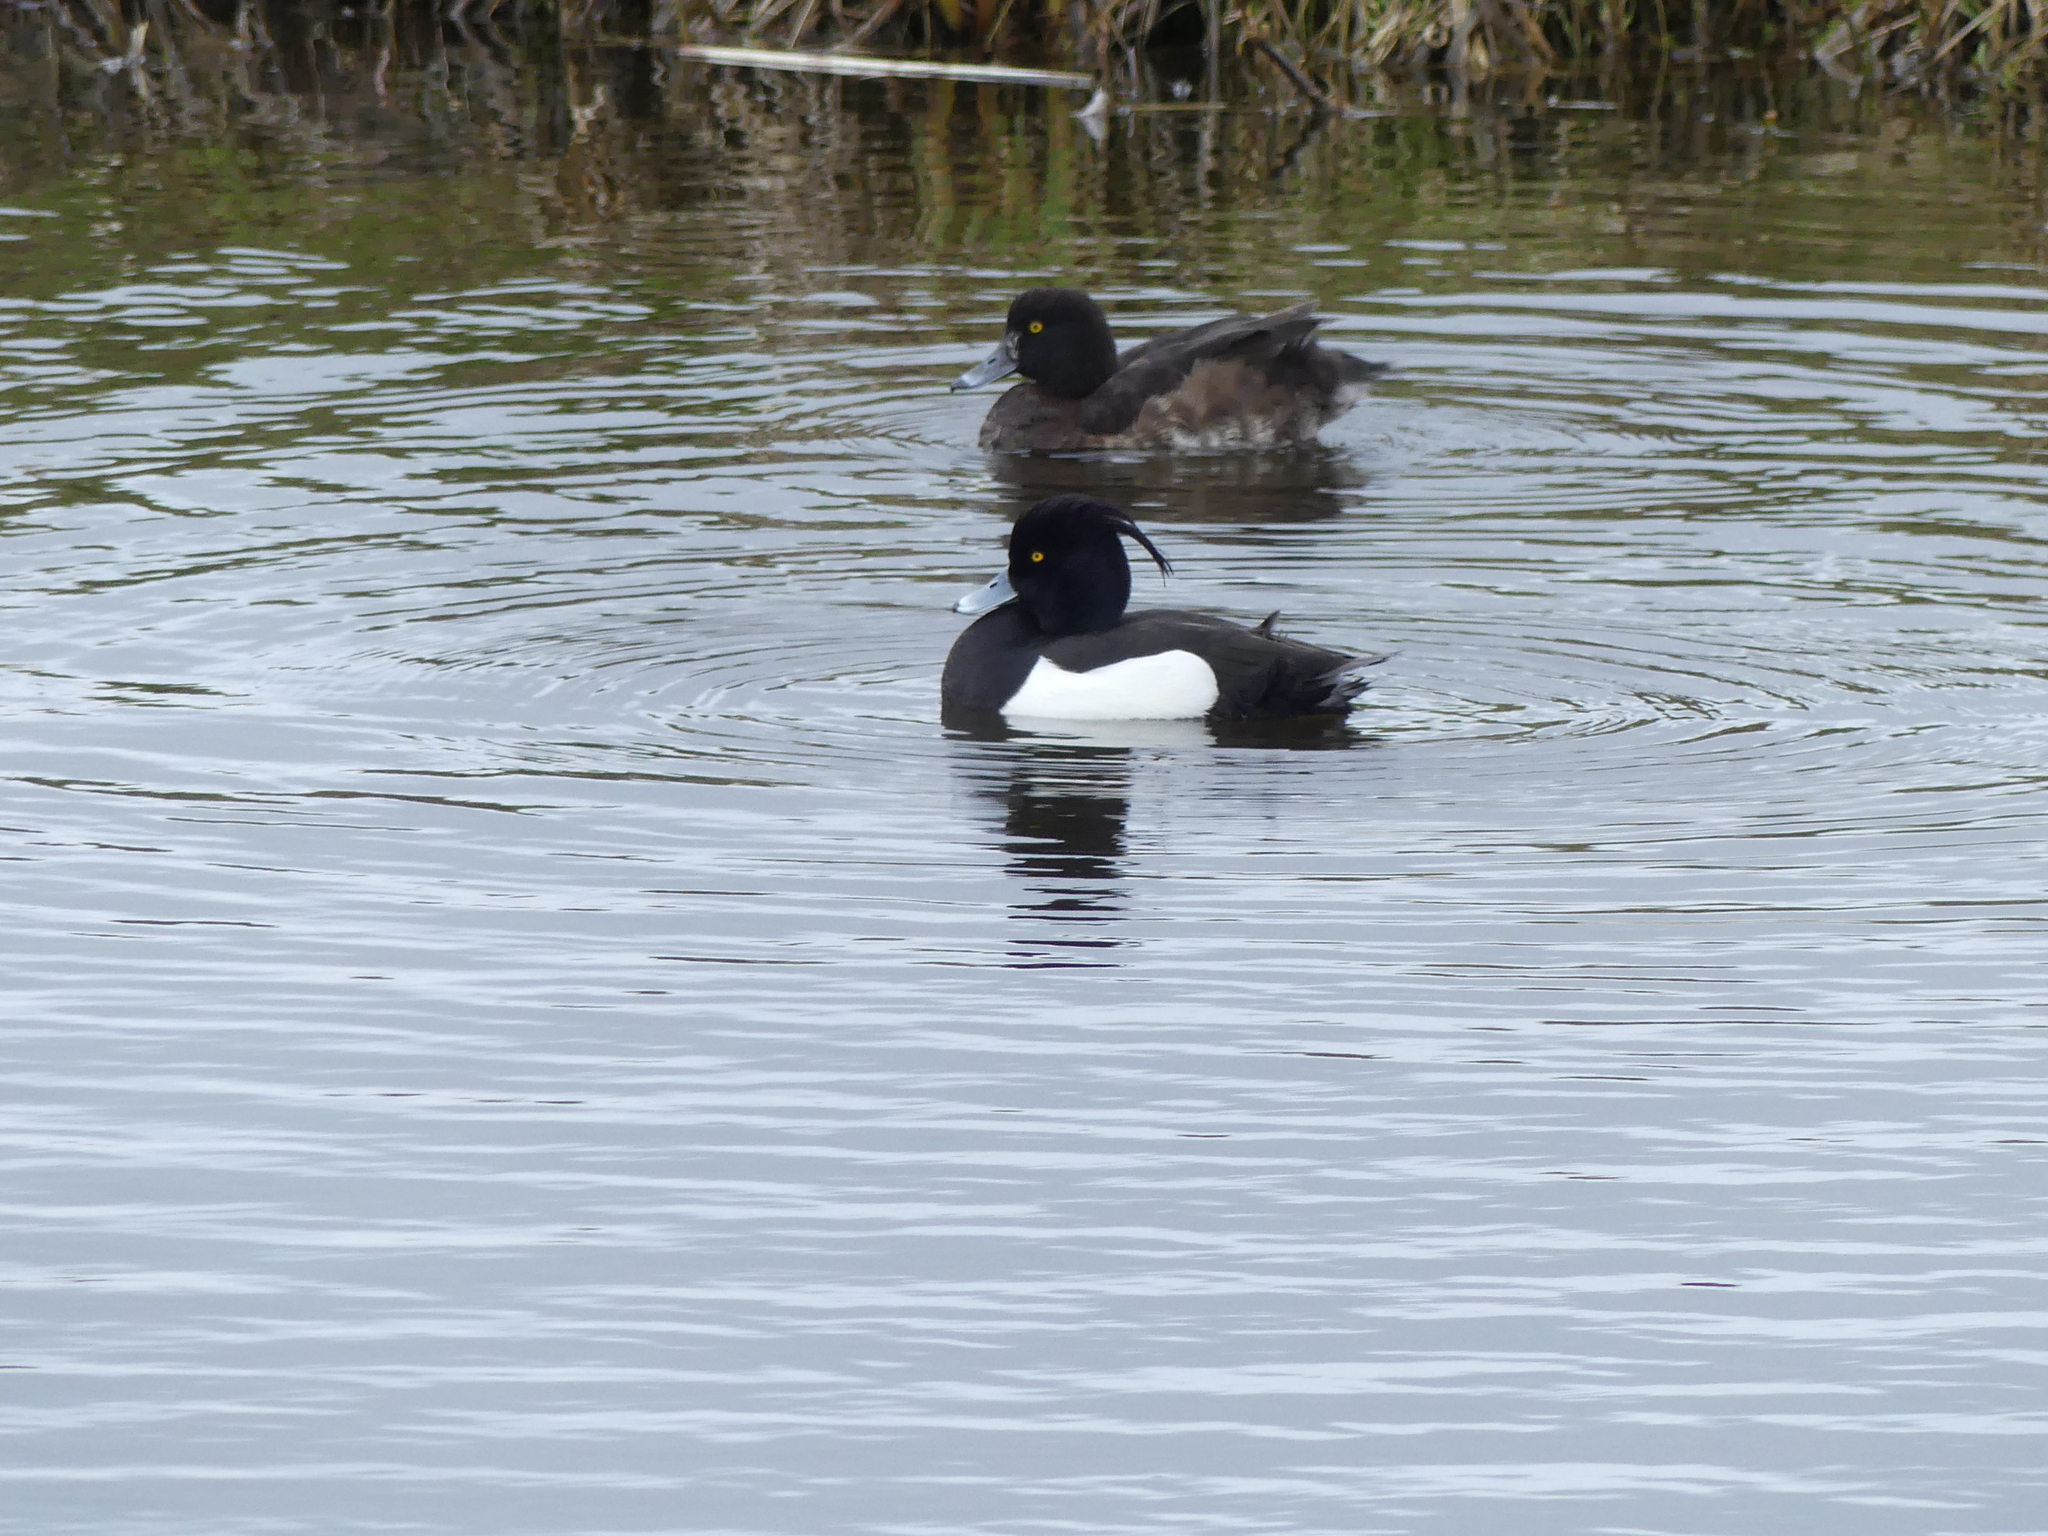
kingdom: Animalia
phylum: Chordata
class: Aves
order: Anseriformes
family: Anatidae
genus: Aythya
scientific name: Aythya fuligula
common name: Tufted duck
